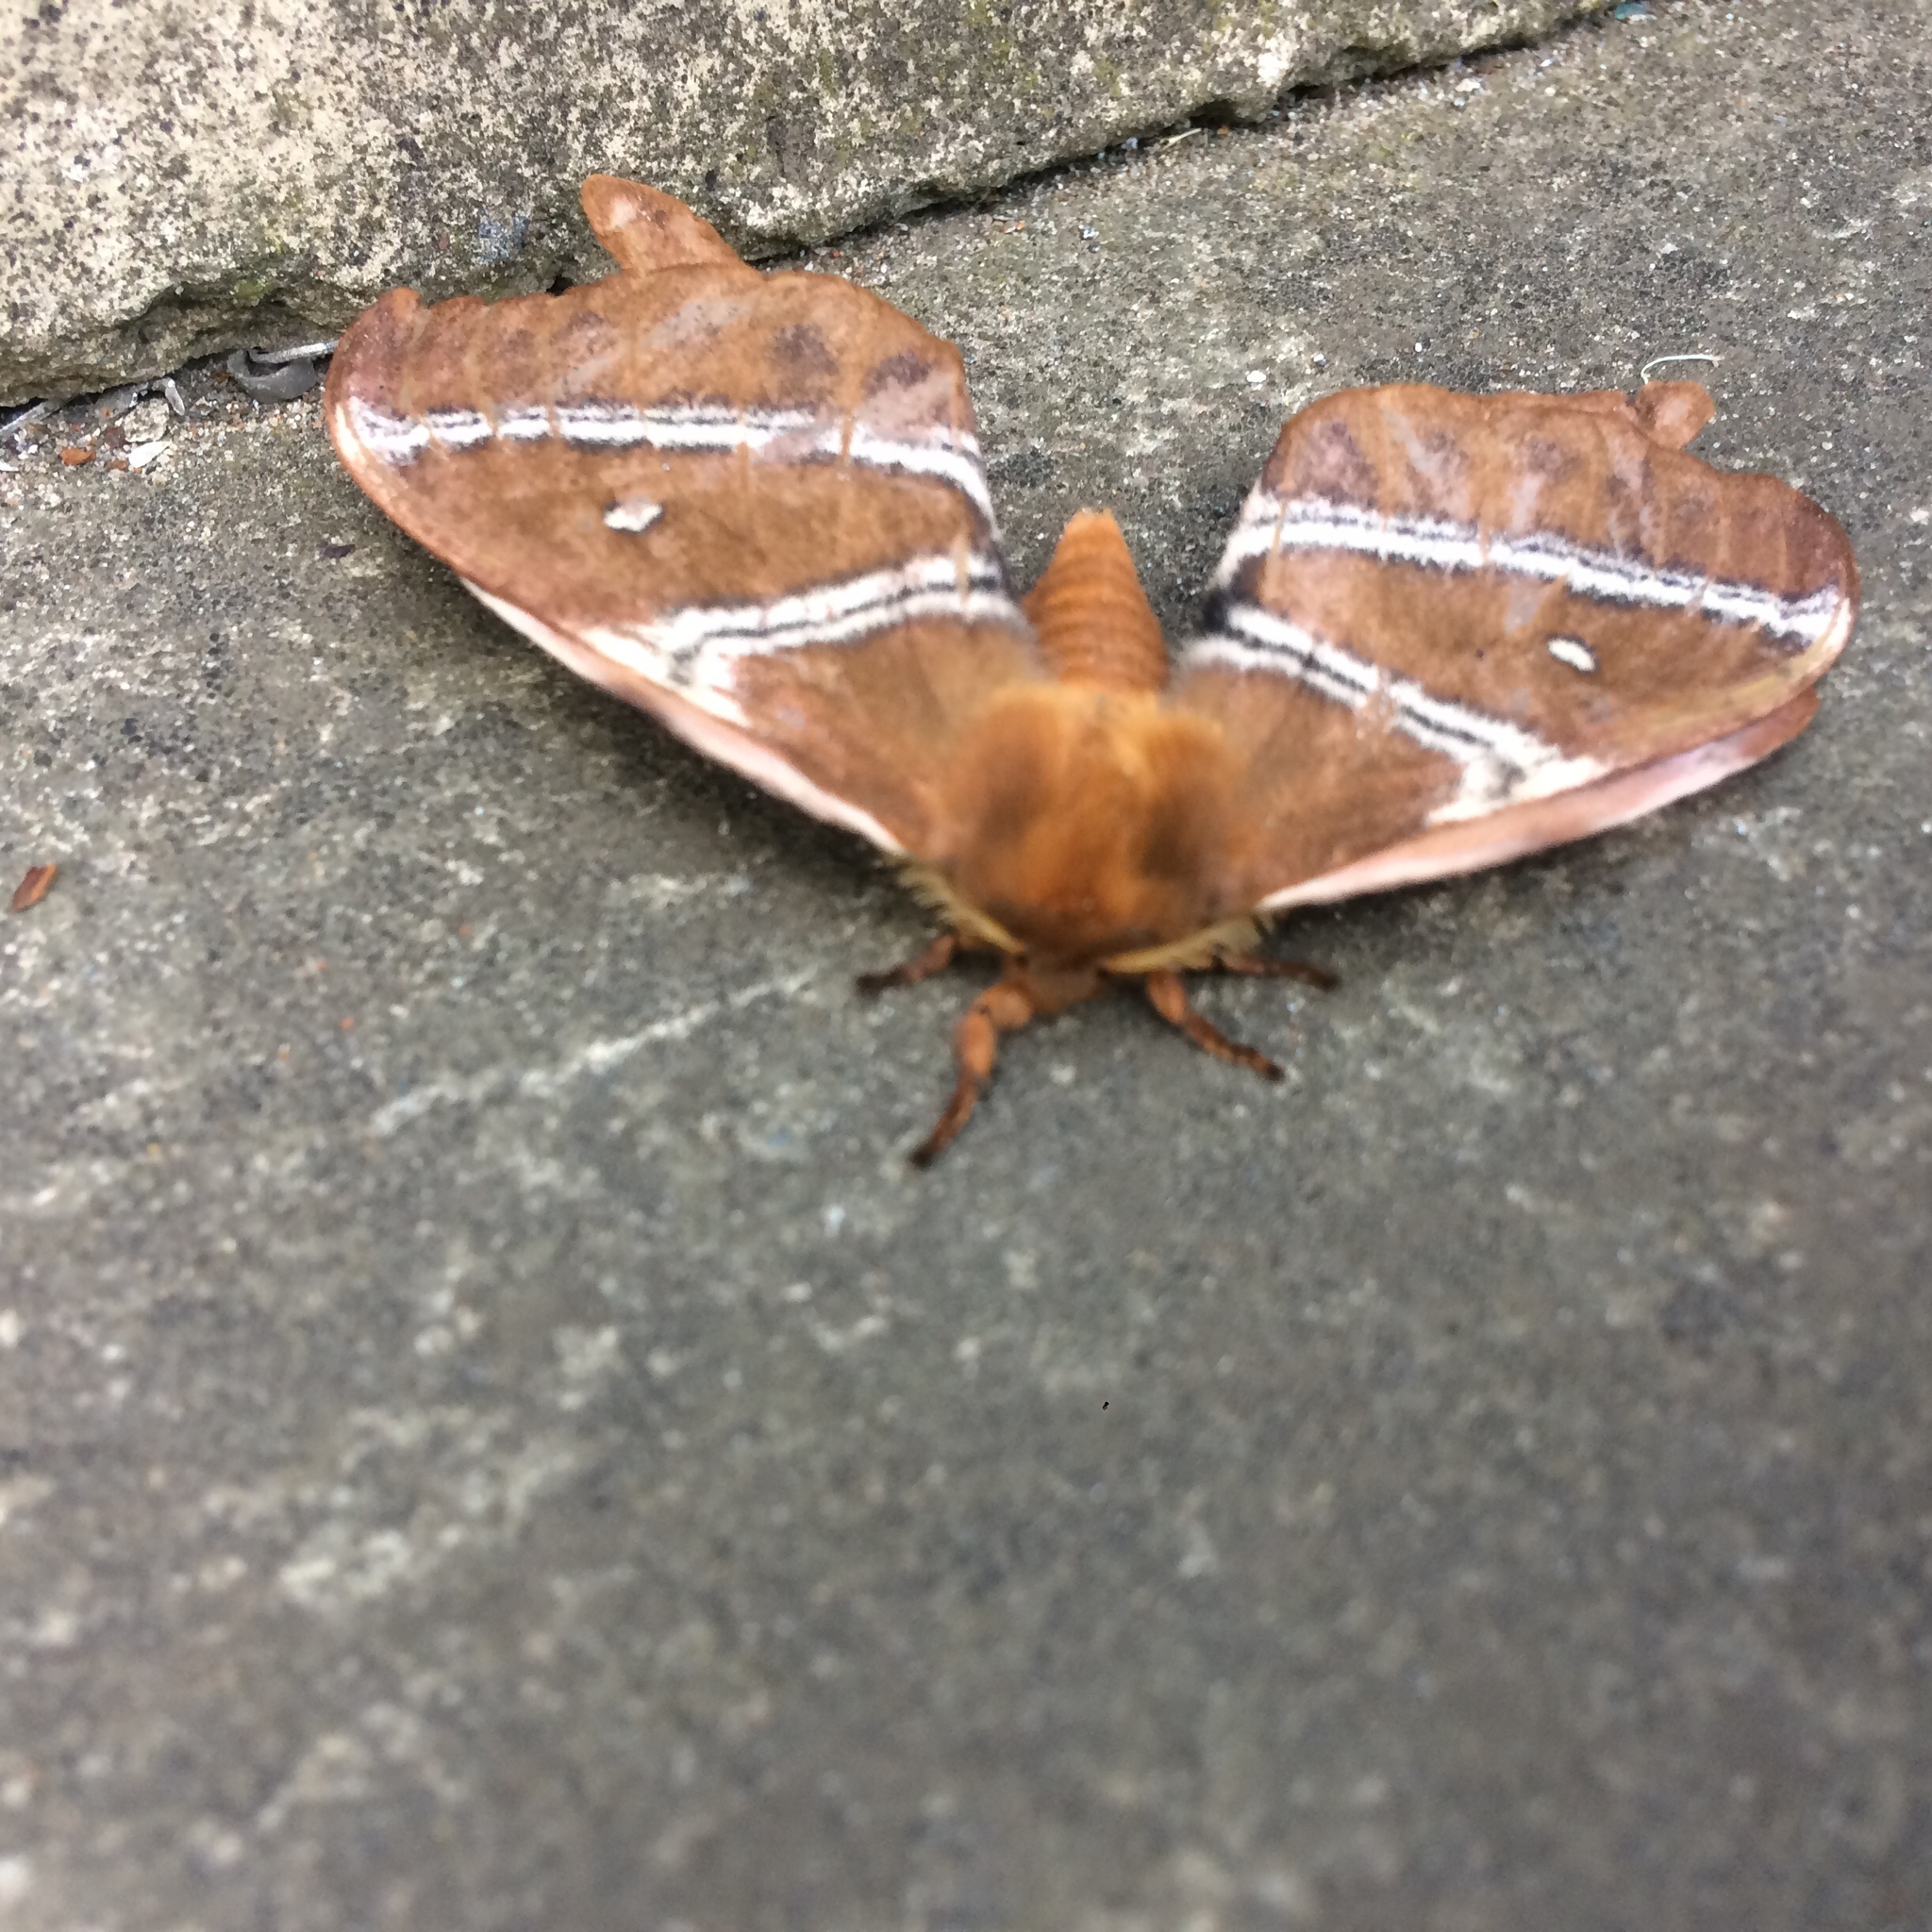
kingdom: Animalia
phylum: Arthropoda
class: Insecta
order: Lepidoptera
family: Saturniidae
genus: Urota
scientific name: Urota sinope
